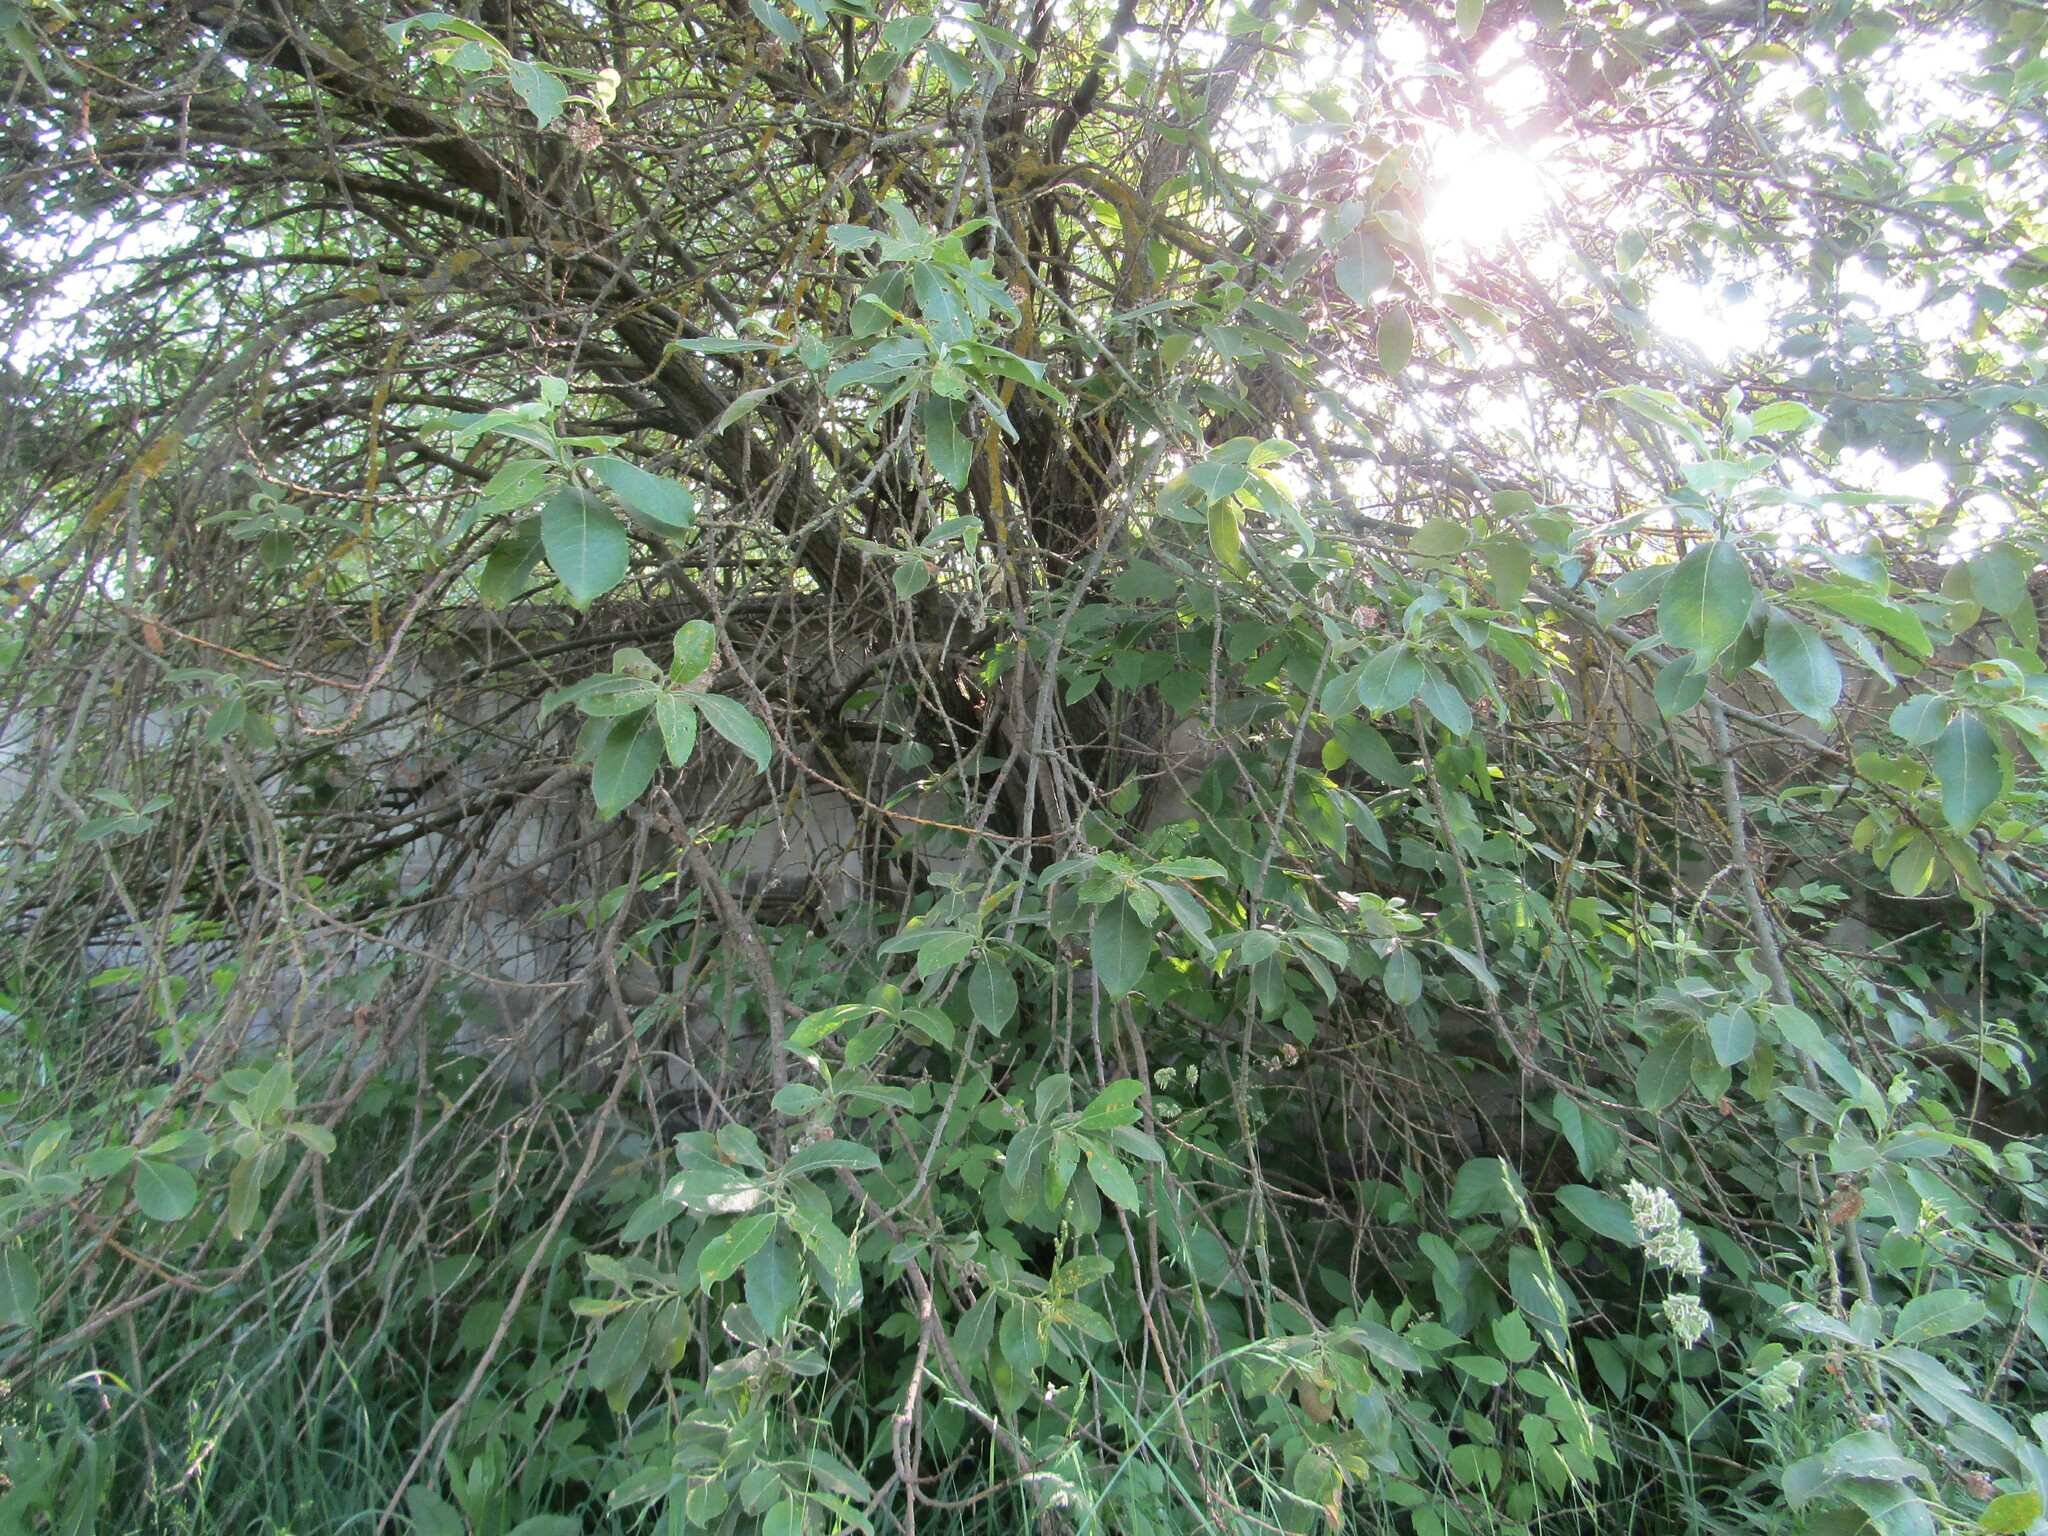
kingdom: Plantae
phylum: Tracheophyta
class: Magnoliopsida
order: Malpighiales
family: Salicaceae
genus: Salix
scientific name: Salix caprea
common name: Goat willow
